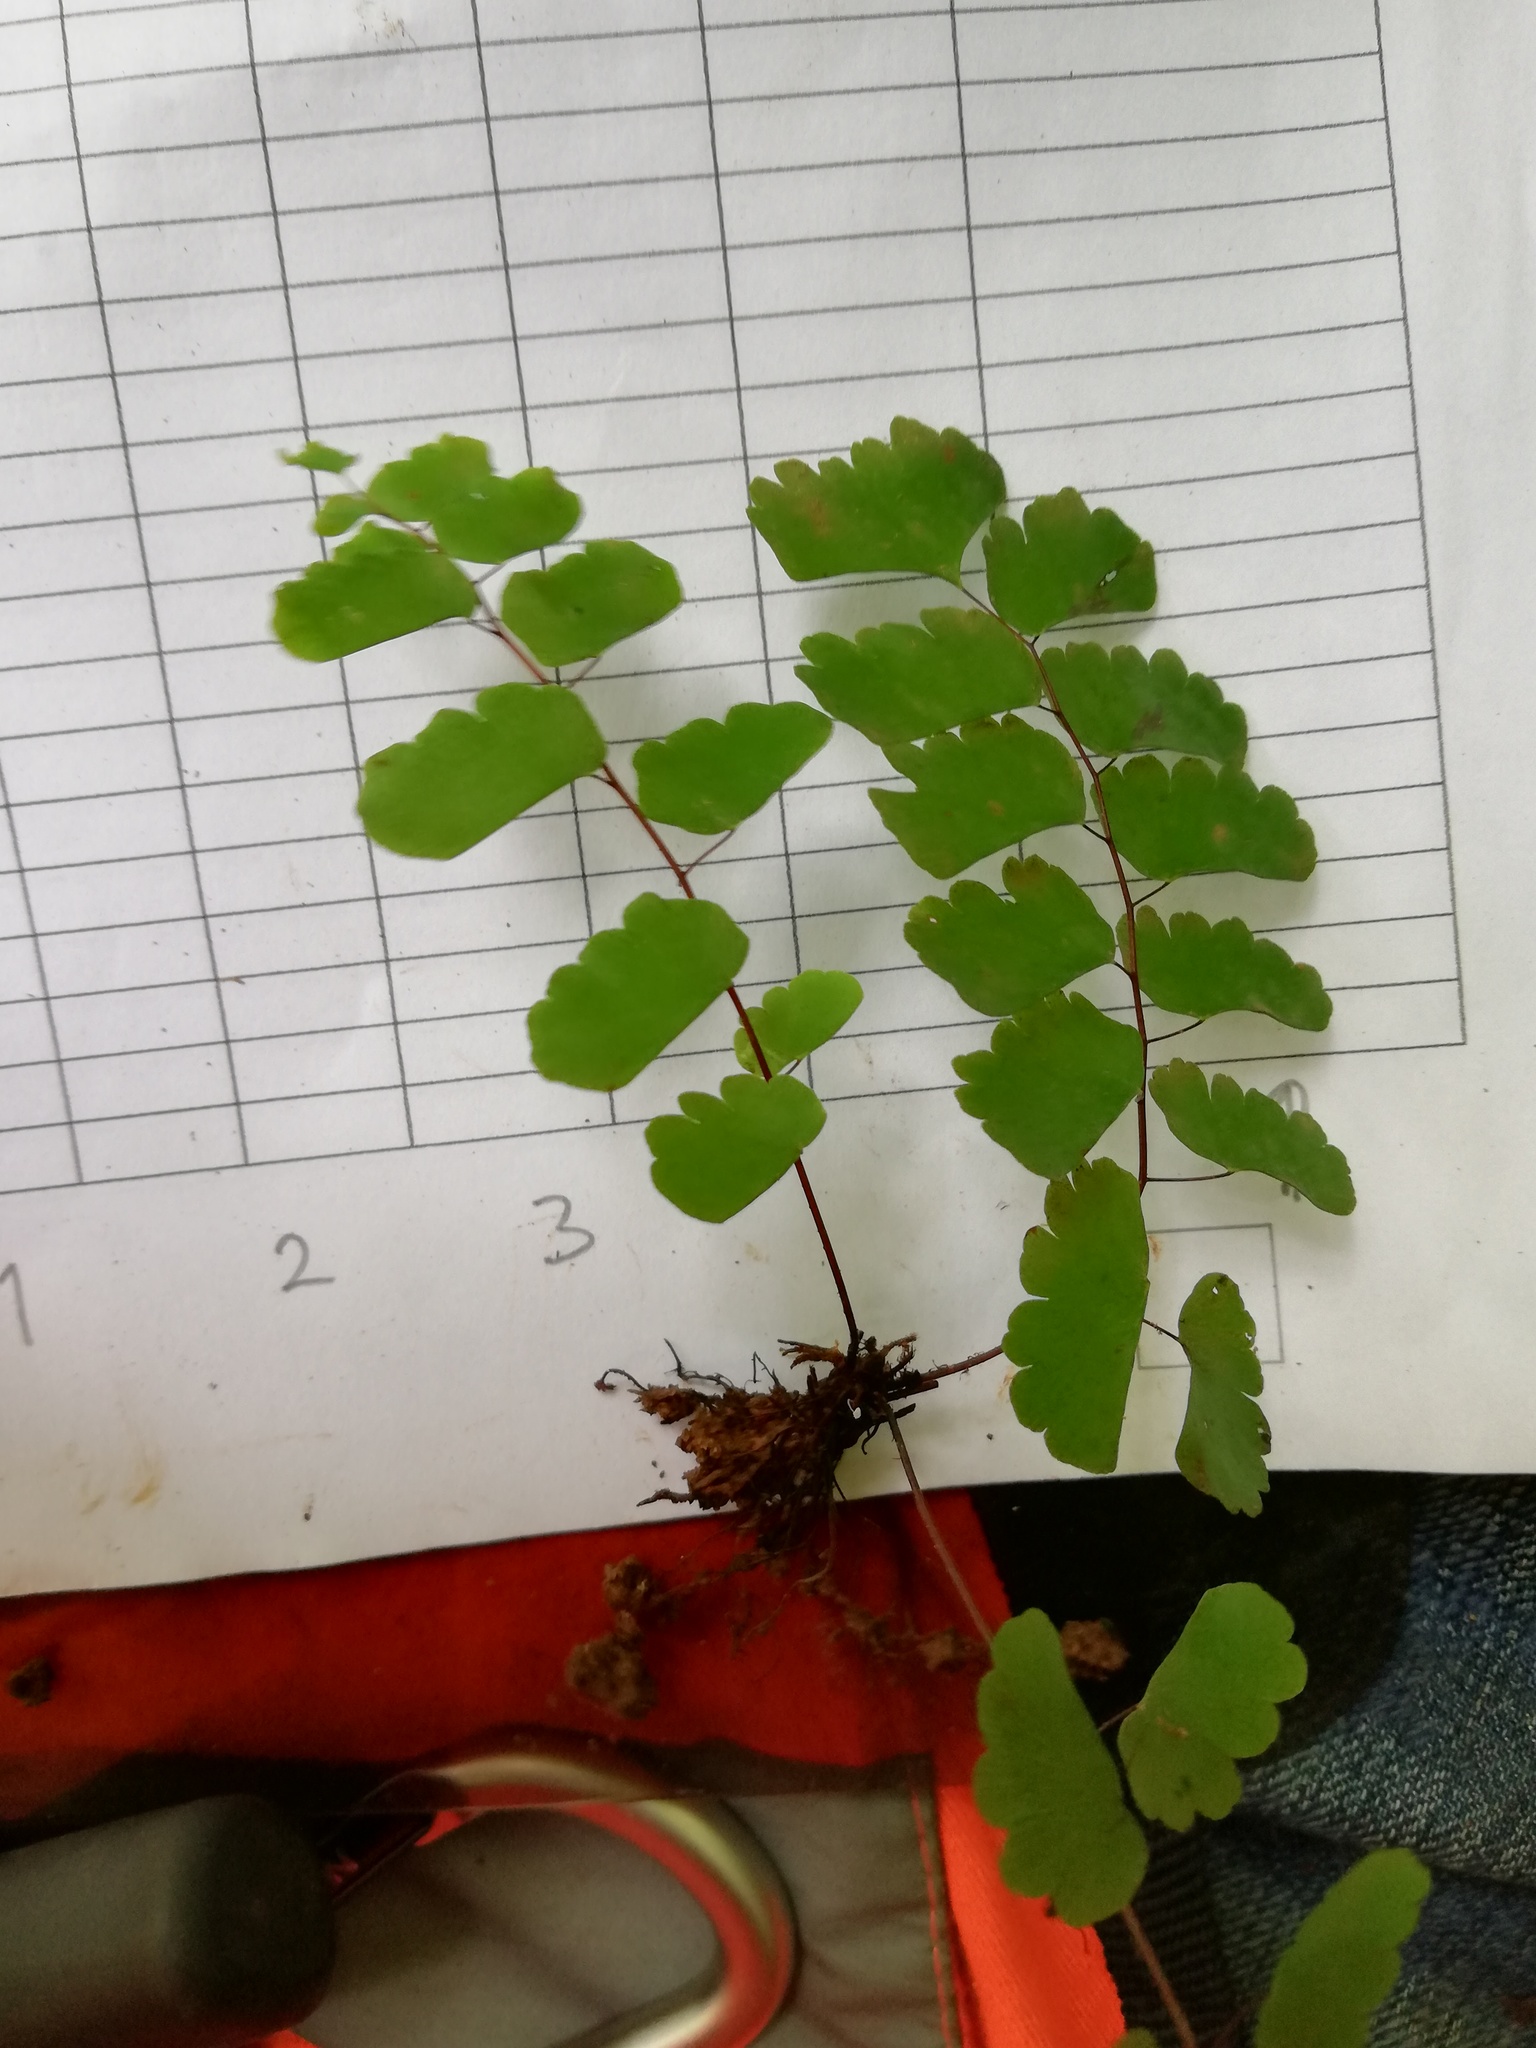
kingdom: Plantae
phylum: Tracheophyta
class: Polypodiopsida
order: Polypodiales
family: Pteridaceae
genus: Adiantum
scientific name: Adiantum amplum
